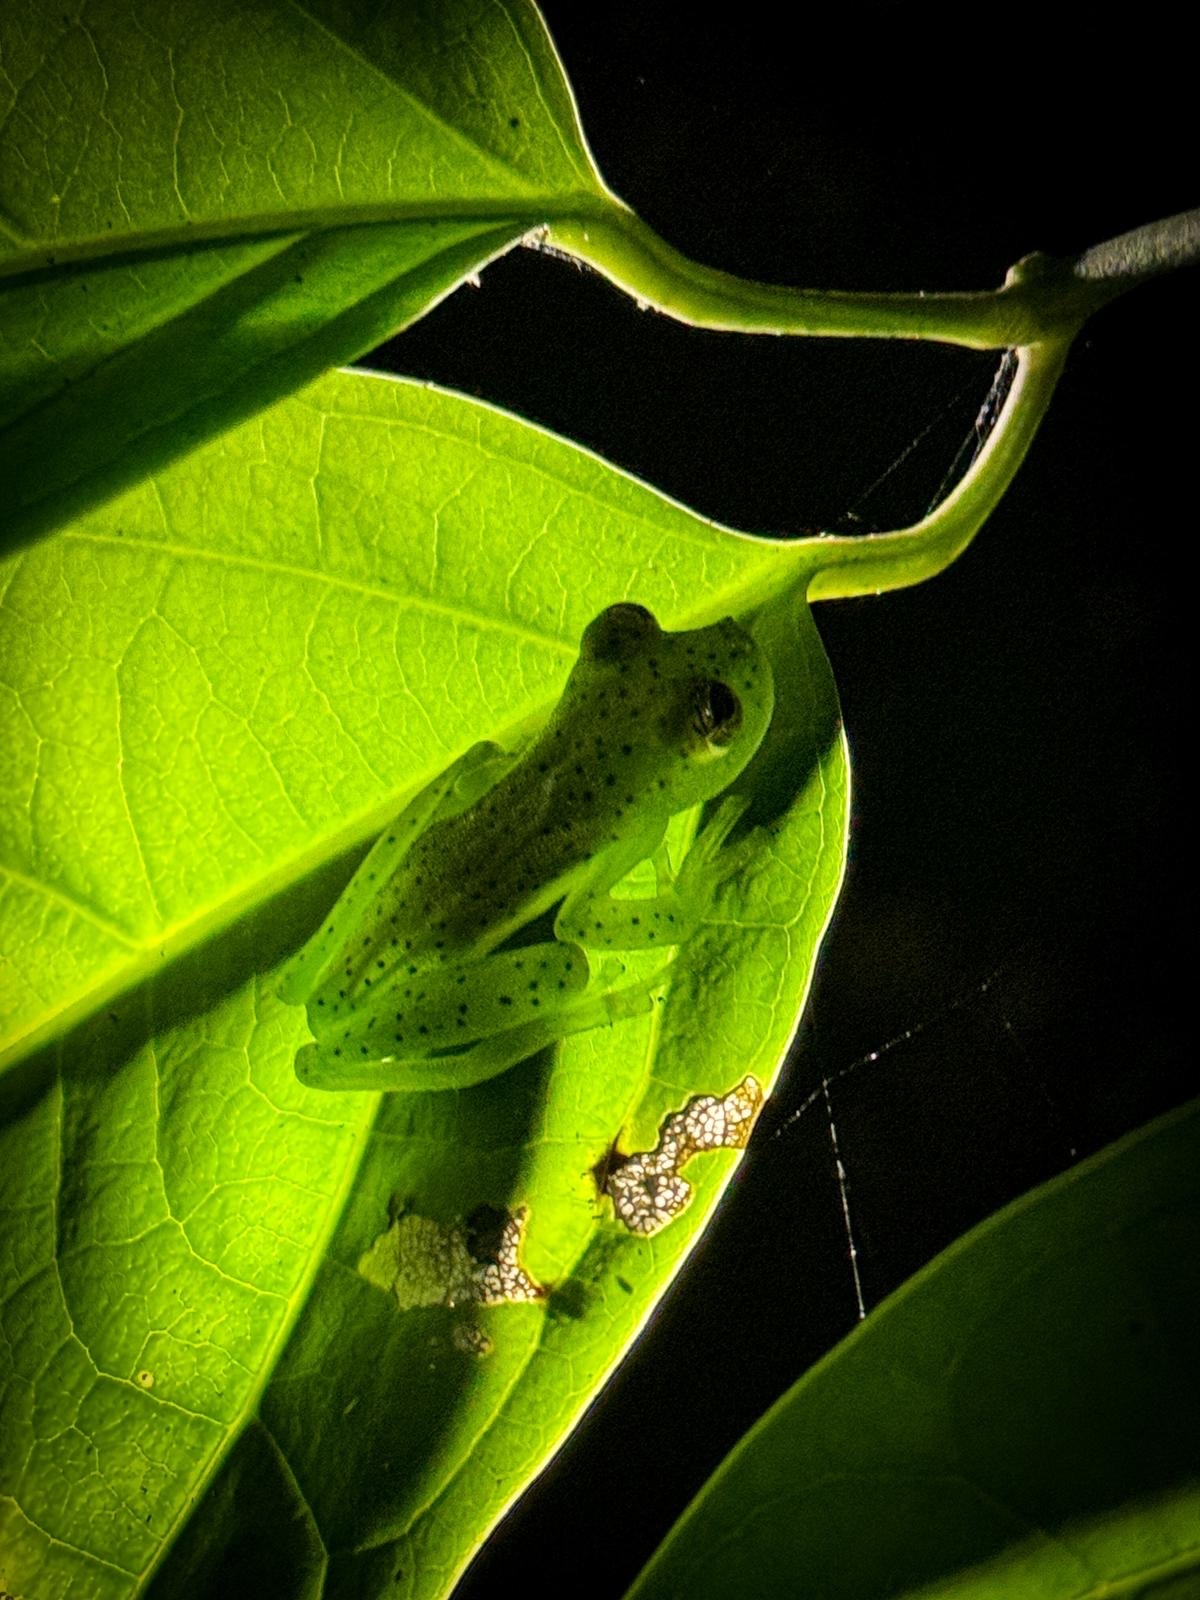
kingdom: Animalia
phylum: Chordata
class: Amphibia
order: Anura
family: Centrolenidae
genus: Espadarana
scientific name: Espadarana prosoblepon
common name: Rana de cristal variable
